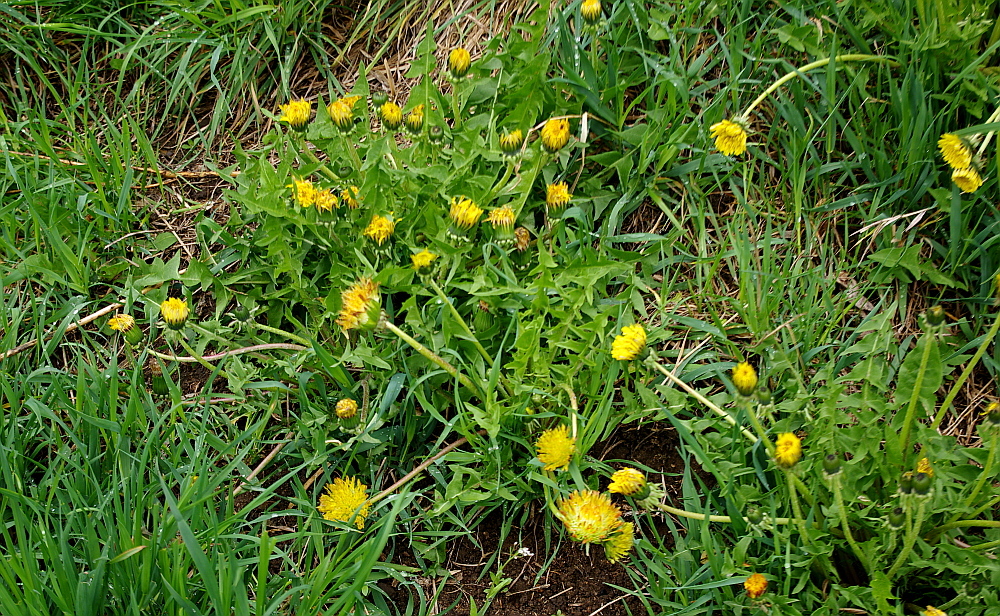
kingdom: Plantae
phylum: Tracheophyta
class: Magnoliopsida
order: Asterales
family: Asteraceae
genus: Taraxacum
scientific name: Taraxacum officinale
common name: Common dandelion
